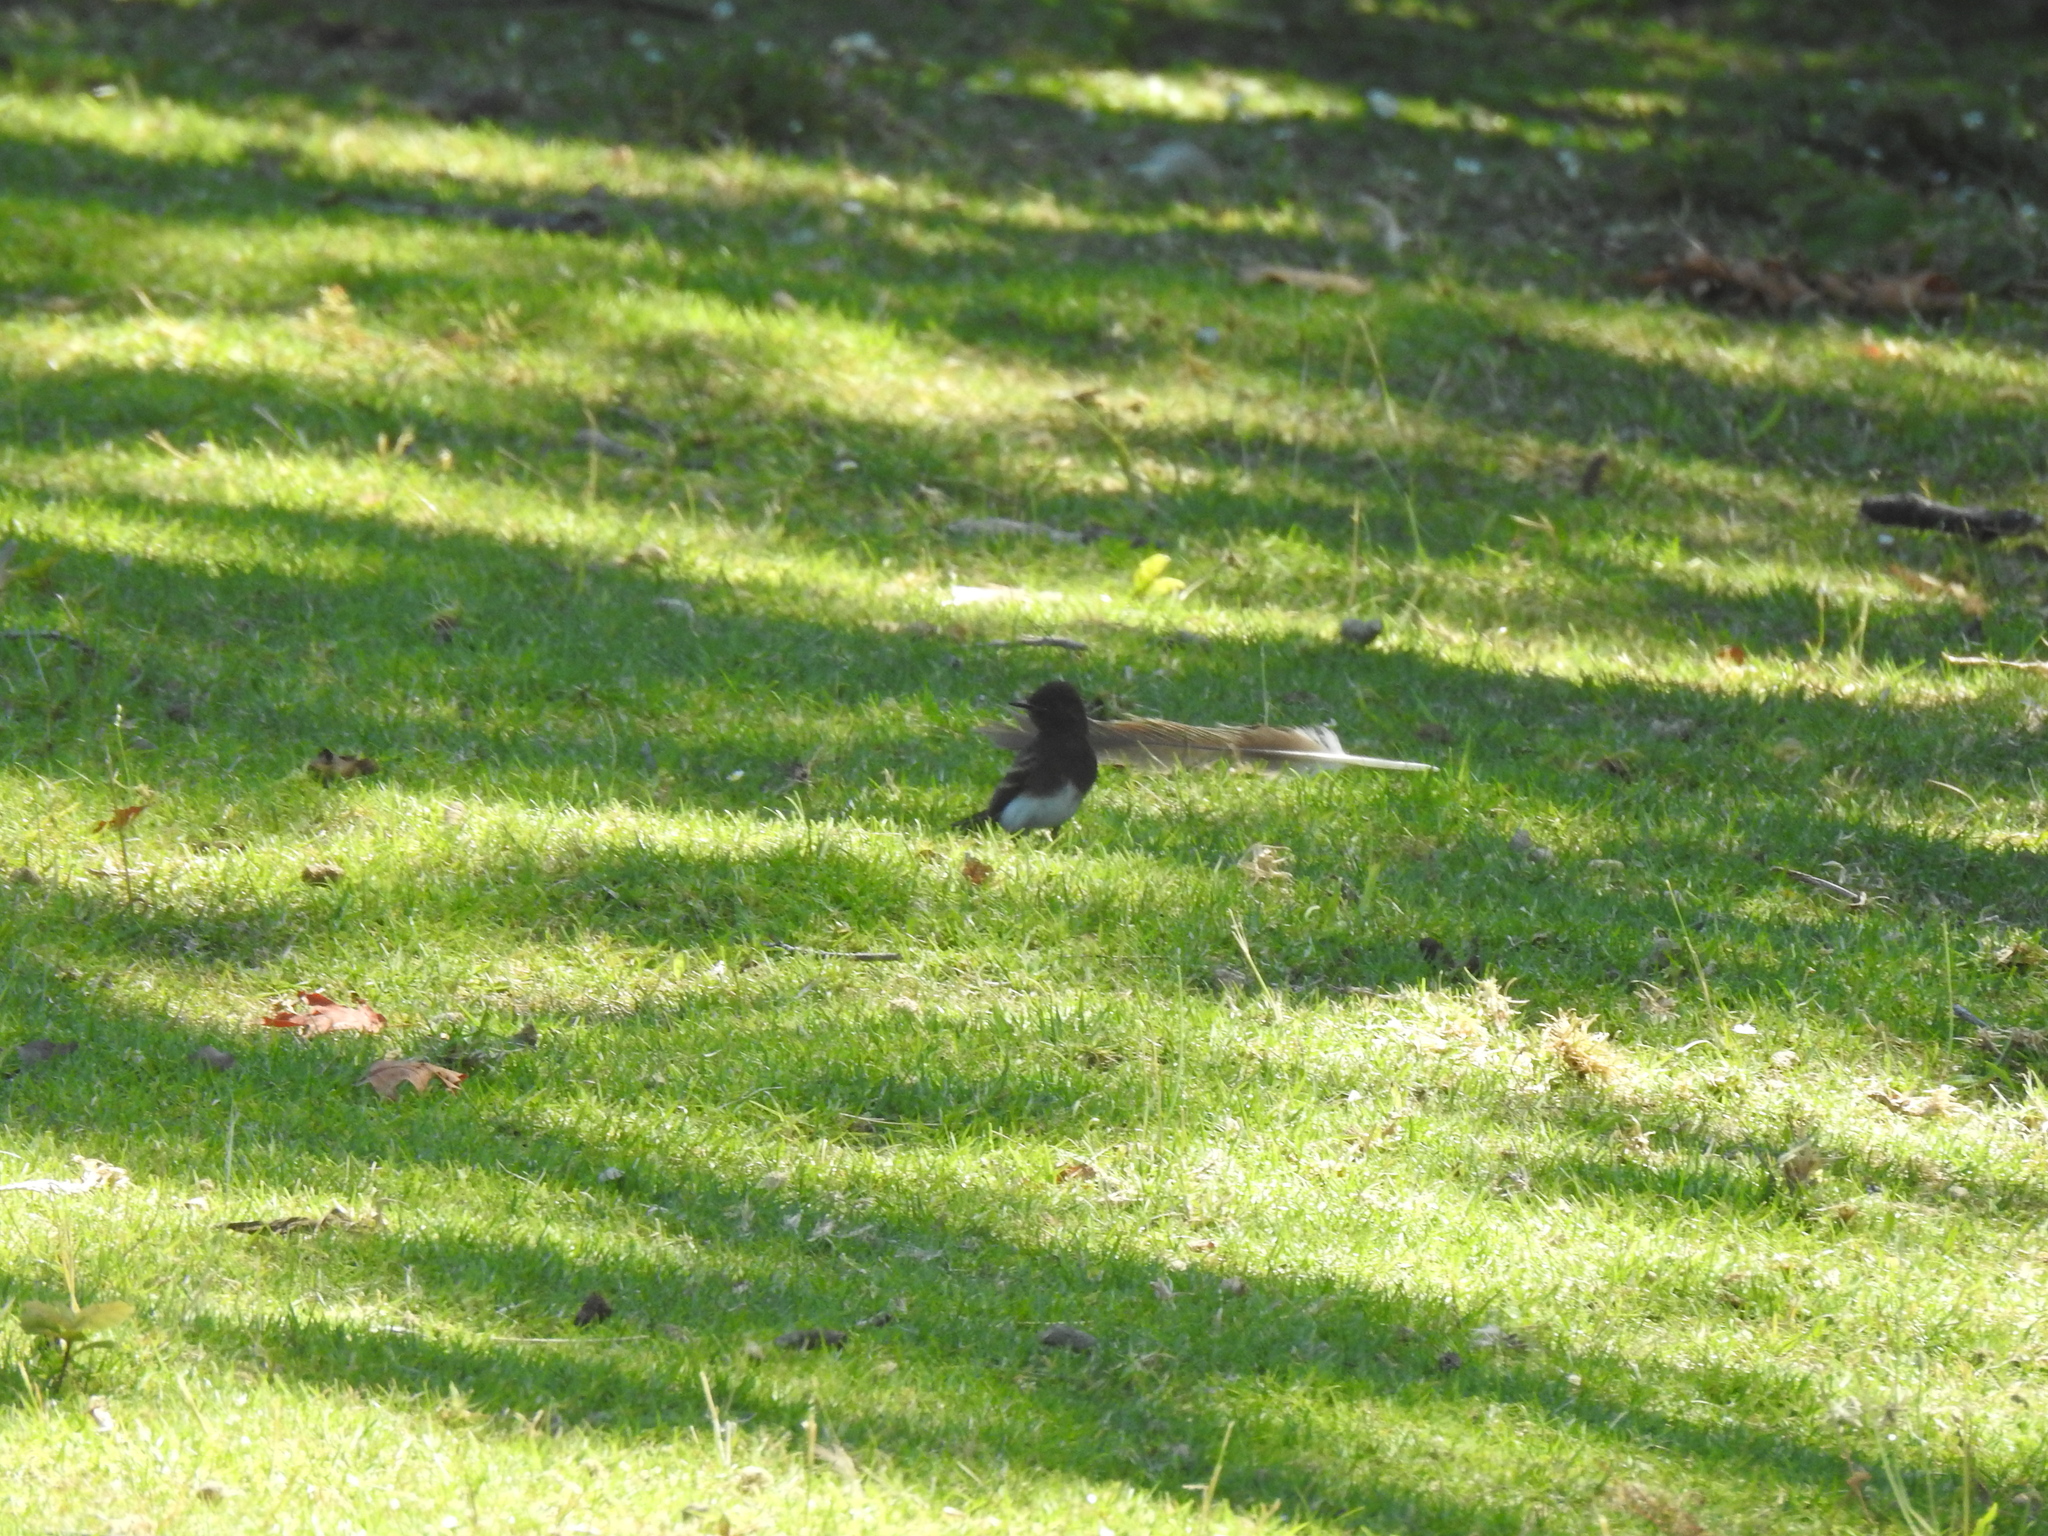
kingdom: Animalia
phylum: Chordata
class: Aves
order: Passeriformes
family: Tyrannidae
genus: Sayornis
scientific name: Sayornis nigricans
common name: Black phoebe
